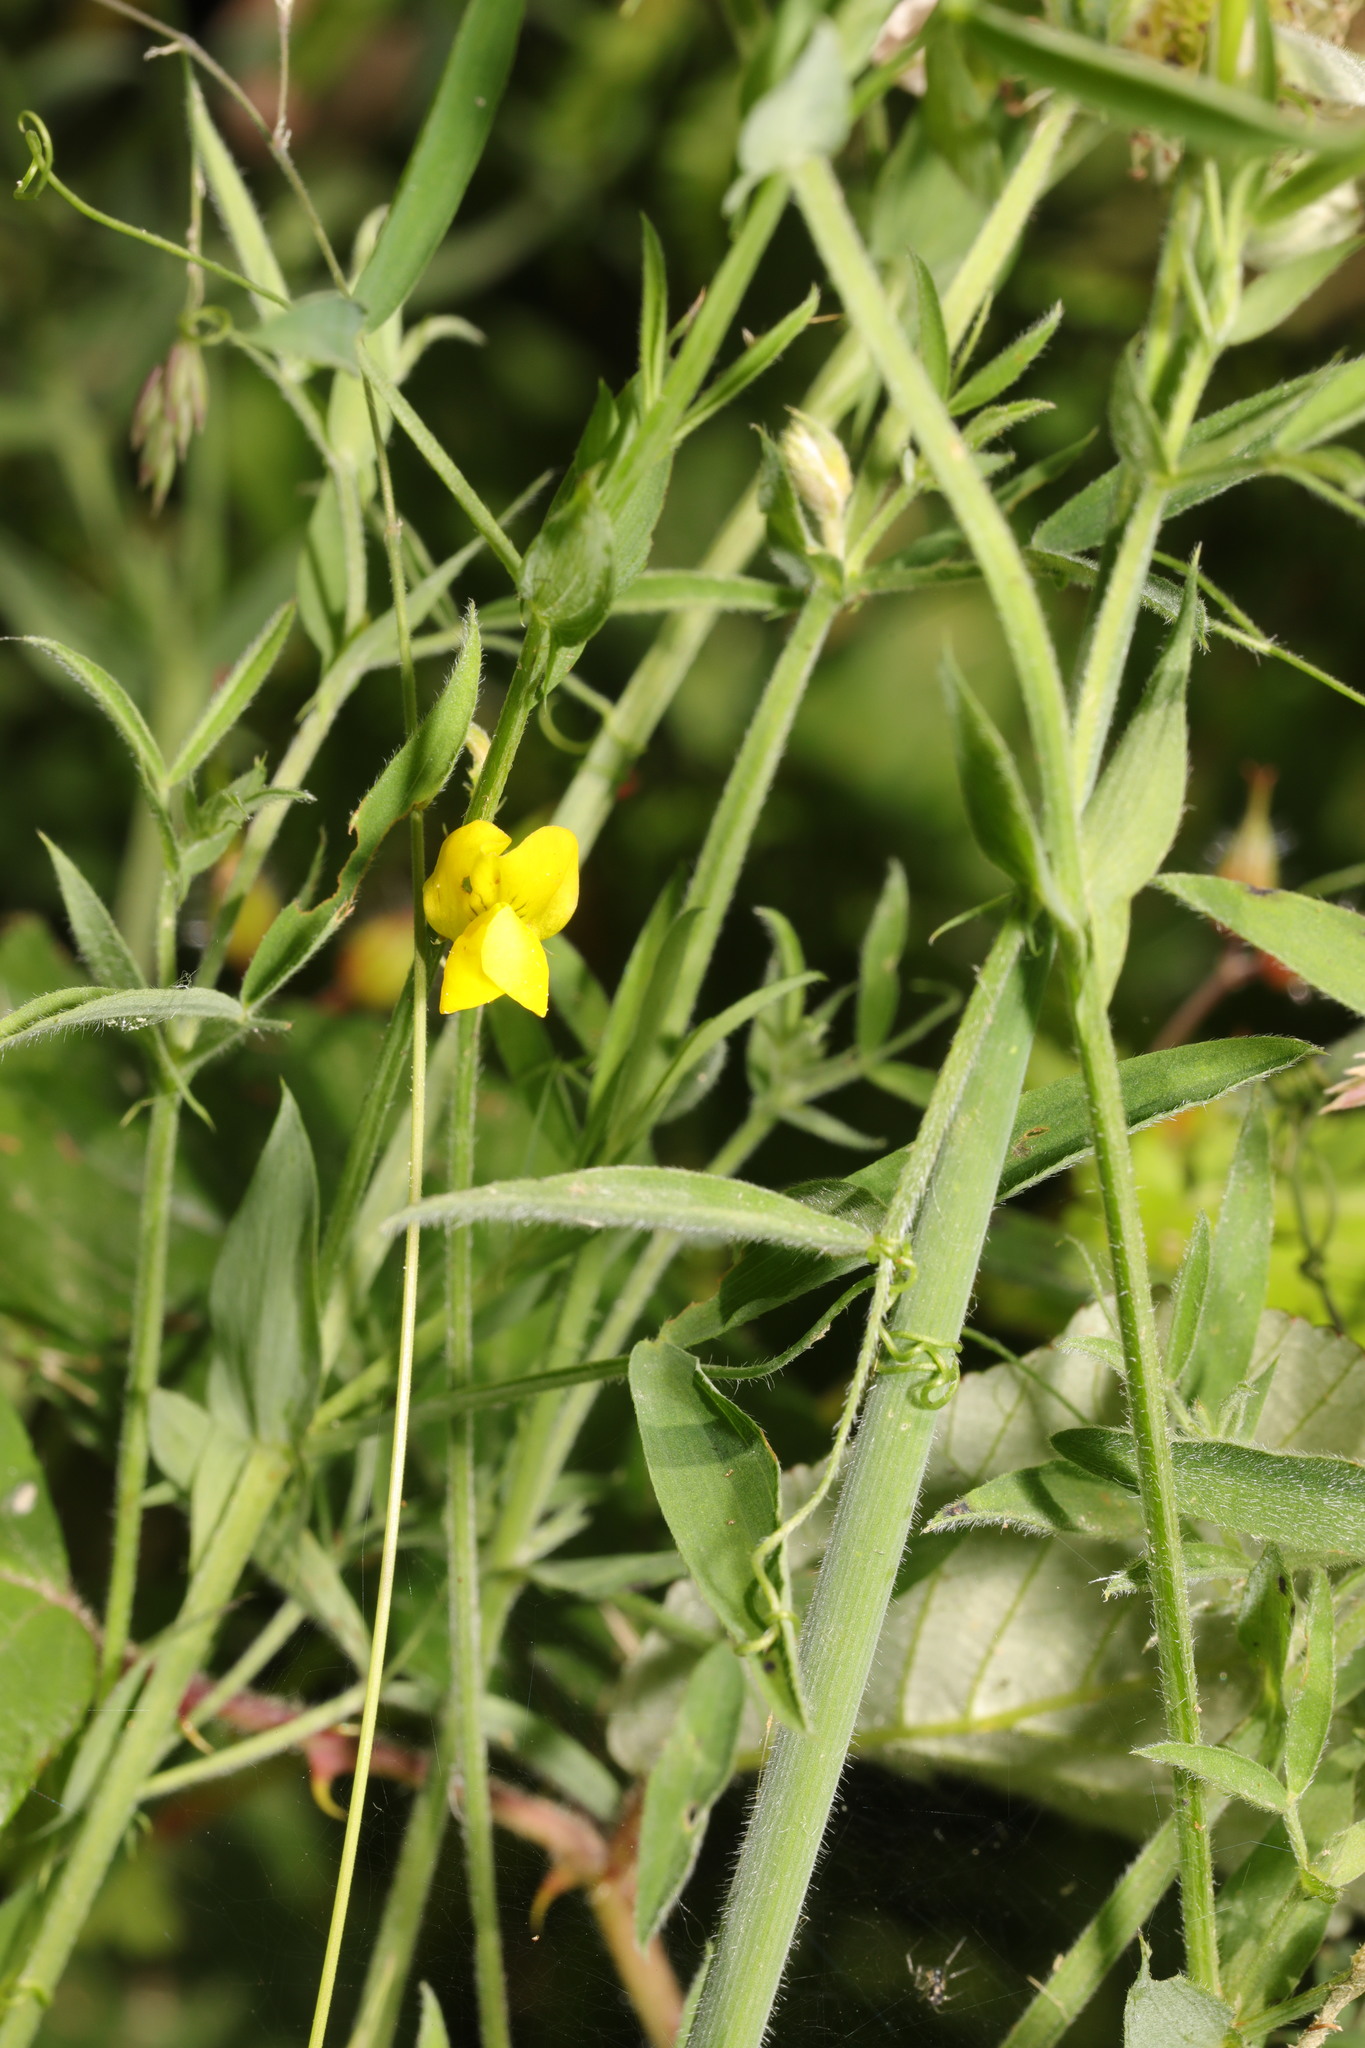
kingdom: Plantae
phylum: Tracheophyta
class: Magnoliopsida
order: Fabales
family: Fabaceae
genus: Lathyrus
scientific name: Lathyrus pratensis
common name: Meadow vetchling
